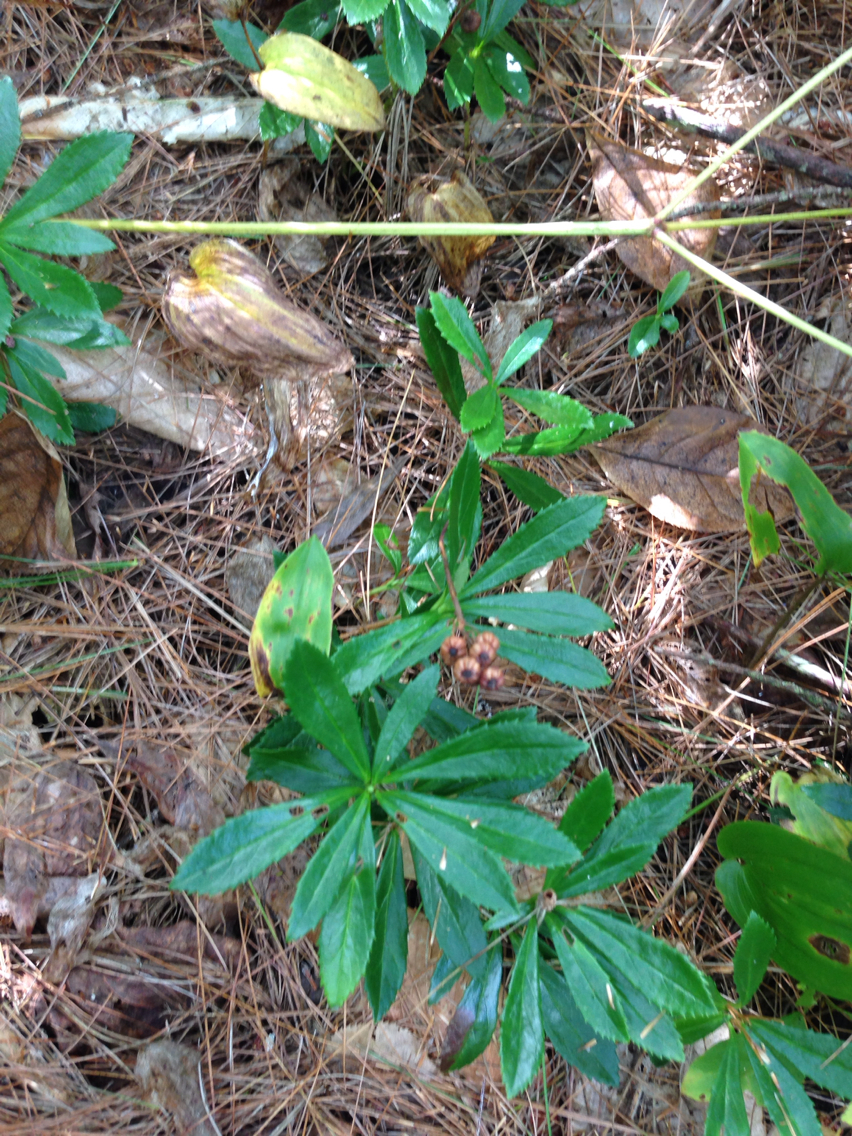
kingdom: Plantae
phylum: Tracheophyta
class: Magnoliopsida
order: Ericales
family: Ericaceae
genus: Chimaphila
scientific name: Chimaphila umbellata
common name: Pipsissewa
